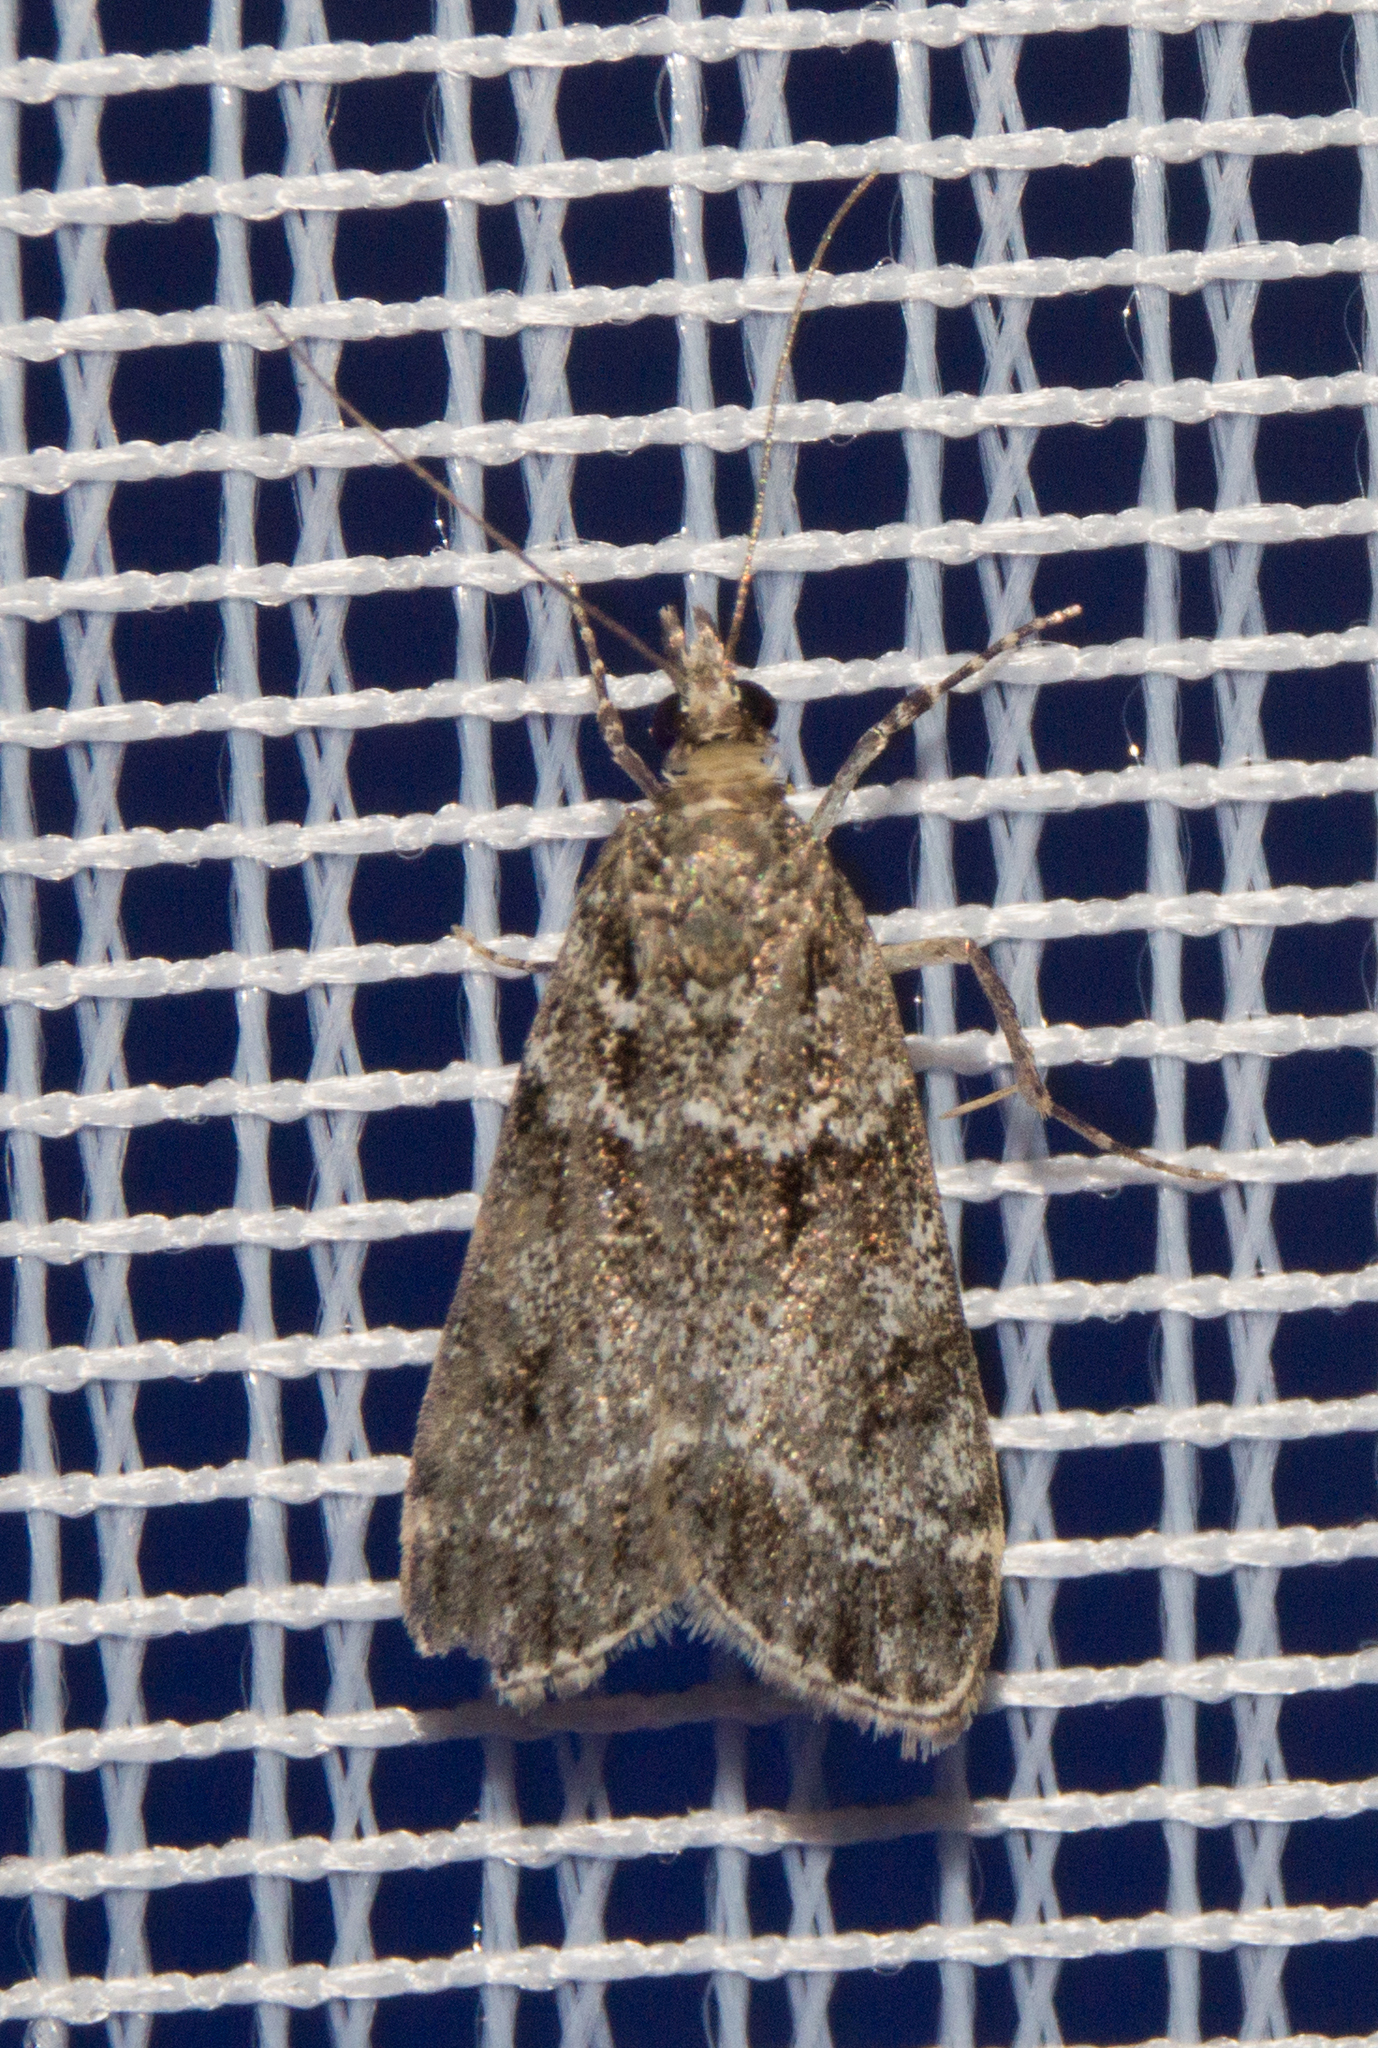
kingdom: Animalia
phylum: Arthropoda
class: Insecta
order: Lepidoptera
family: Crambidae
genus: Eudonia
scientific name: Eudonia mercurella
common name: Small grey
